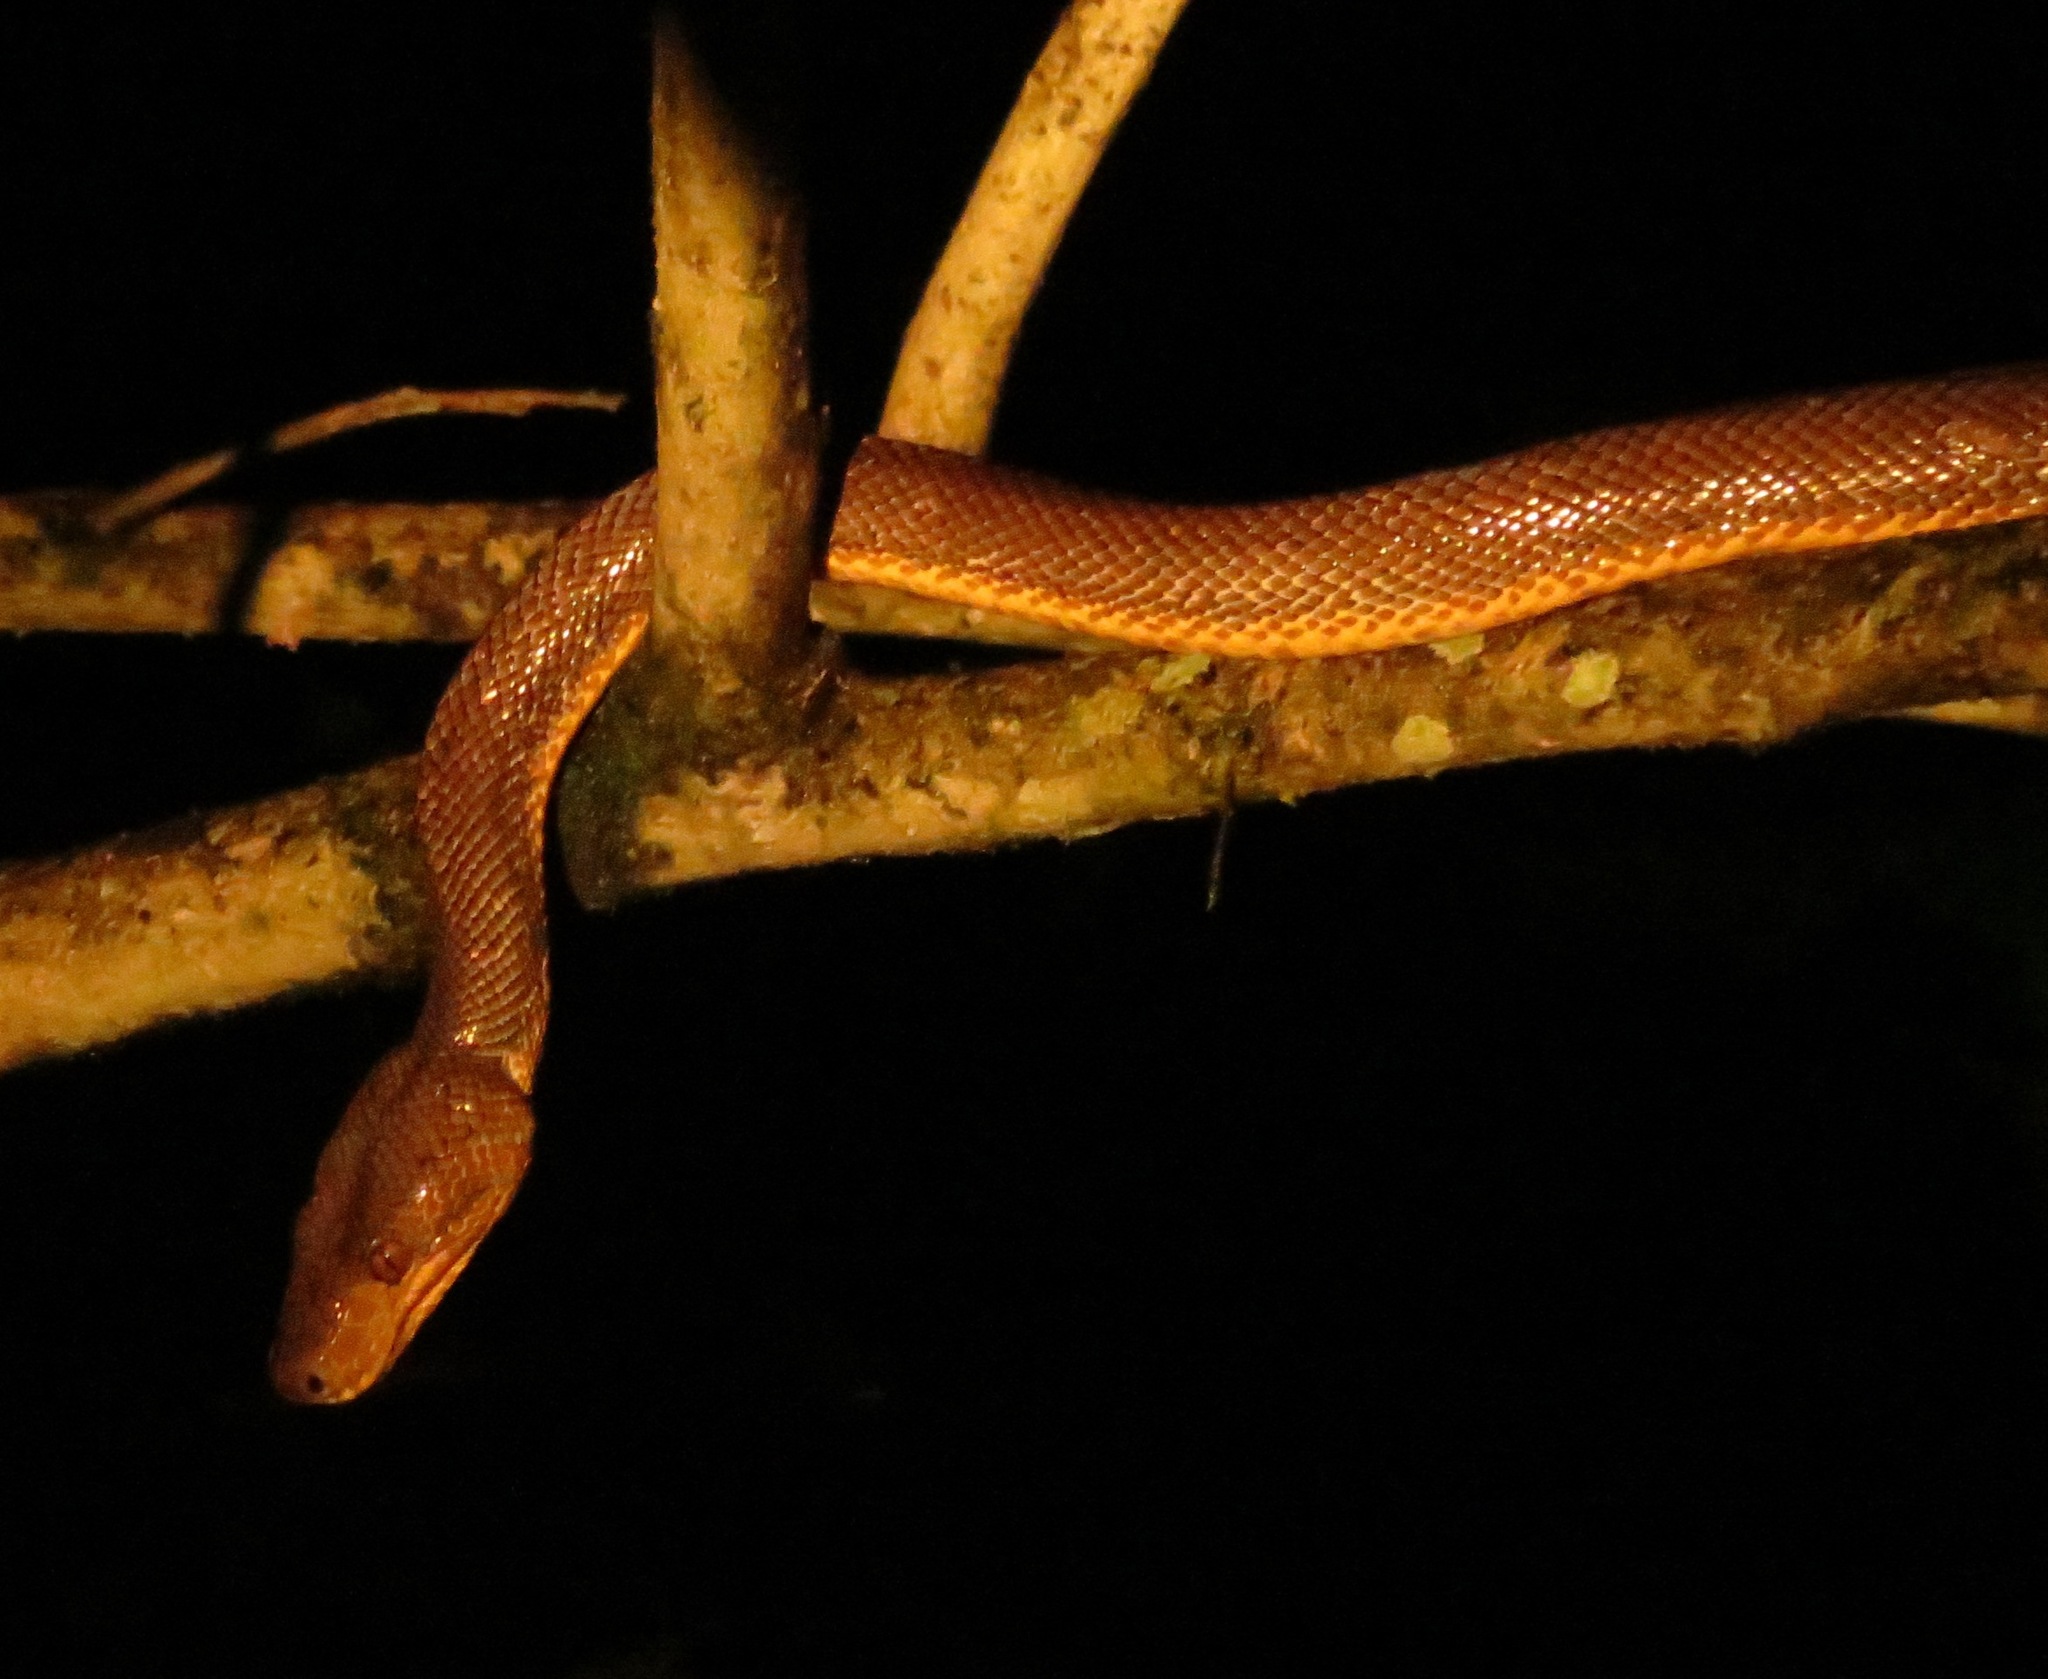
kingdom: Animalia
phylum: Chordata
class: Squamata
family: Boidae
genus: Corallus
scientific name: Corallus ruschenbergerii
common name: Dormilona
